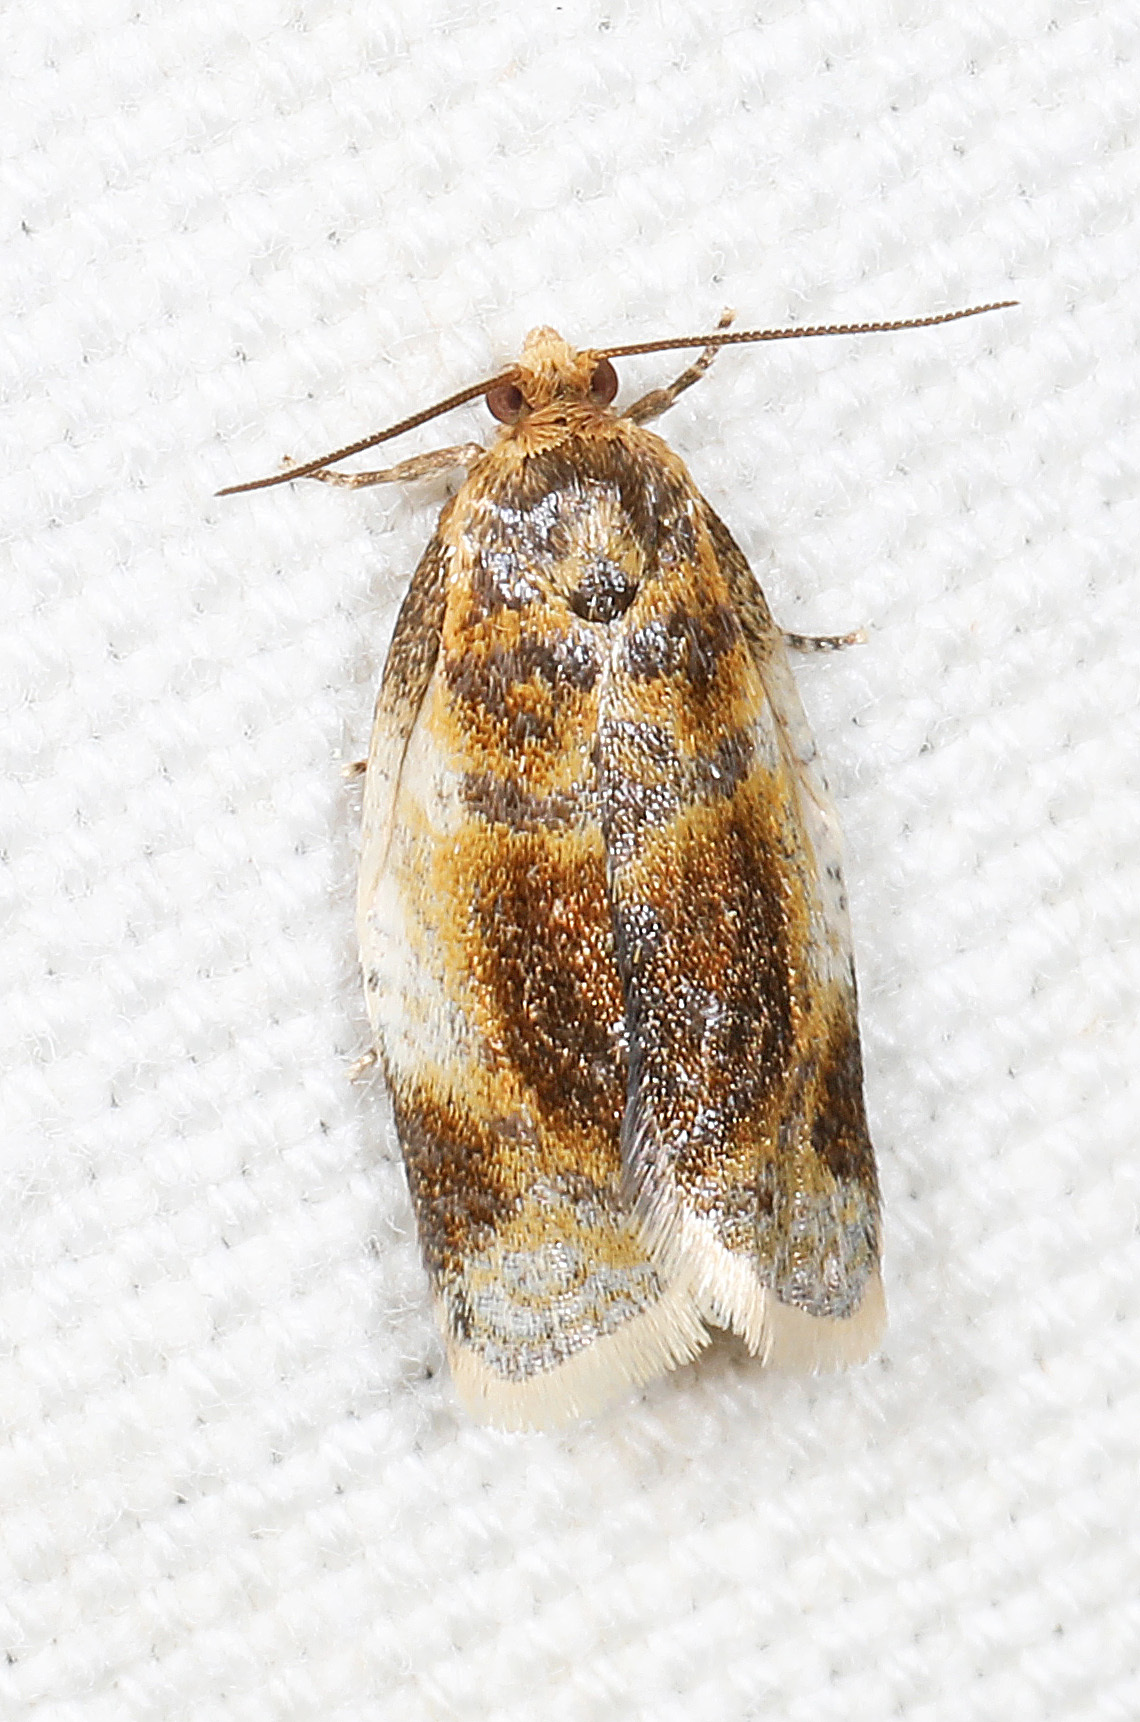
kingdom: Animalia
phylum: Arthropoda
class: Insecta
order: Lepidoptera
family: Tortricidae
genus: Clepsis
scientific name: Clepsis melaleucanus
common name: American apple tortrix
